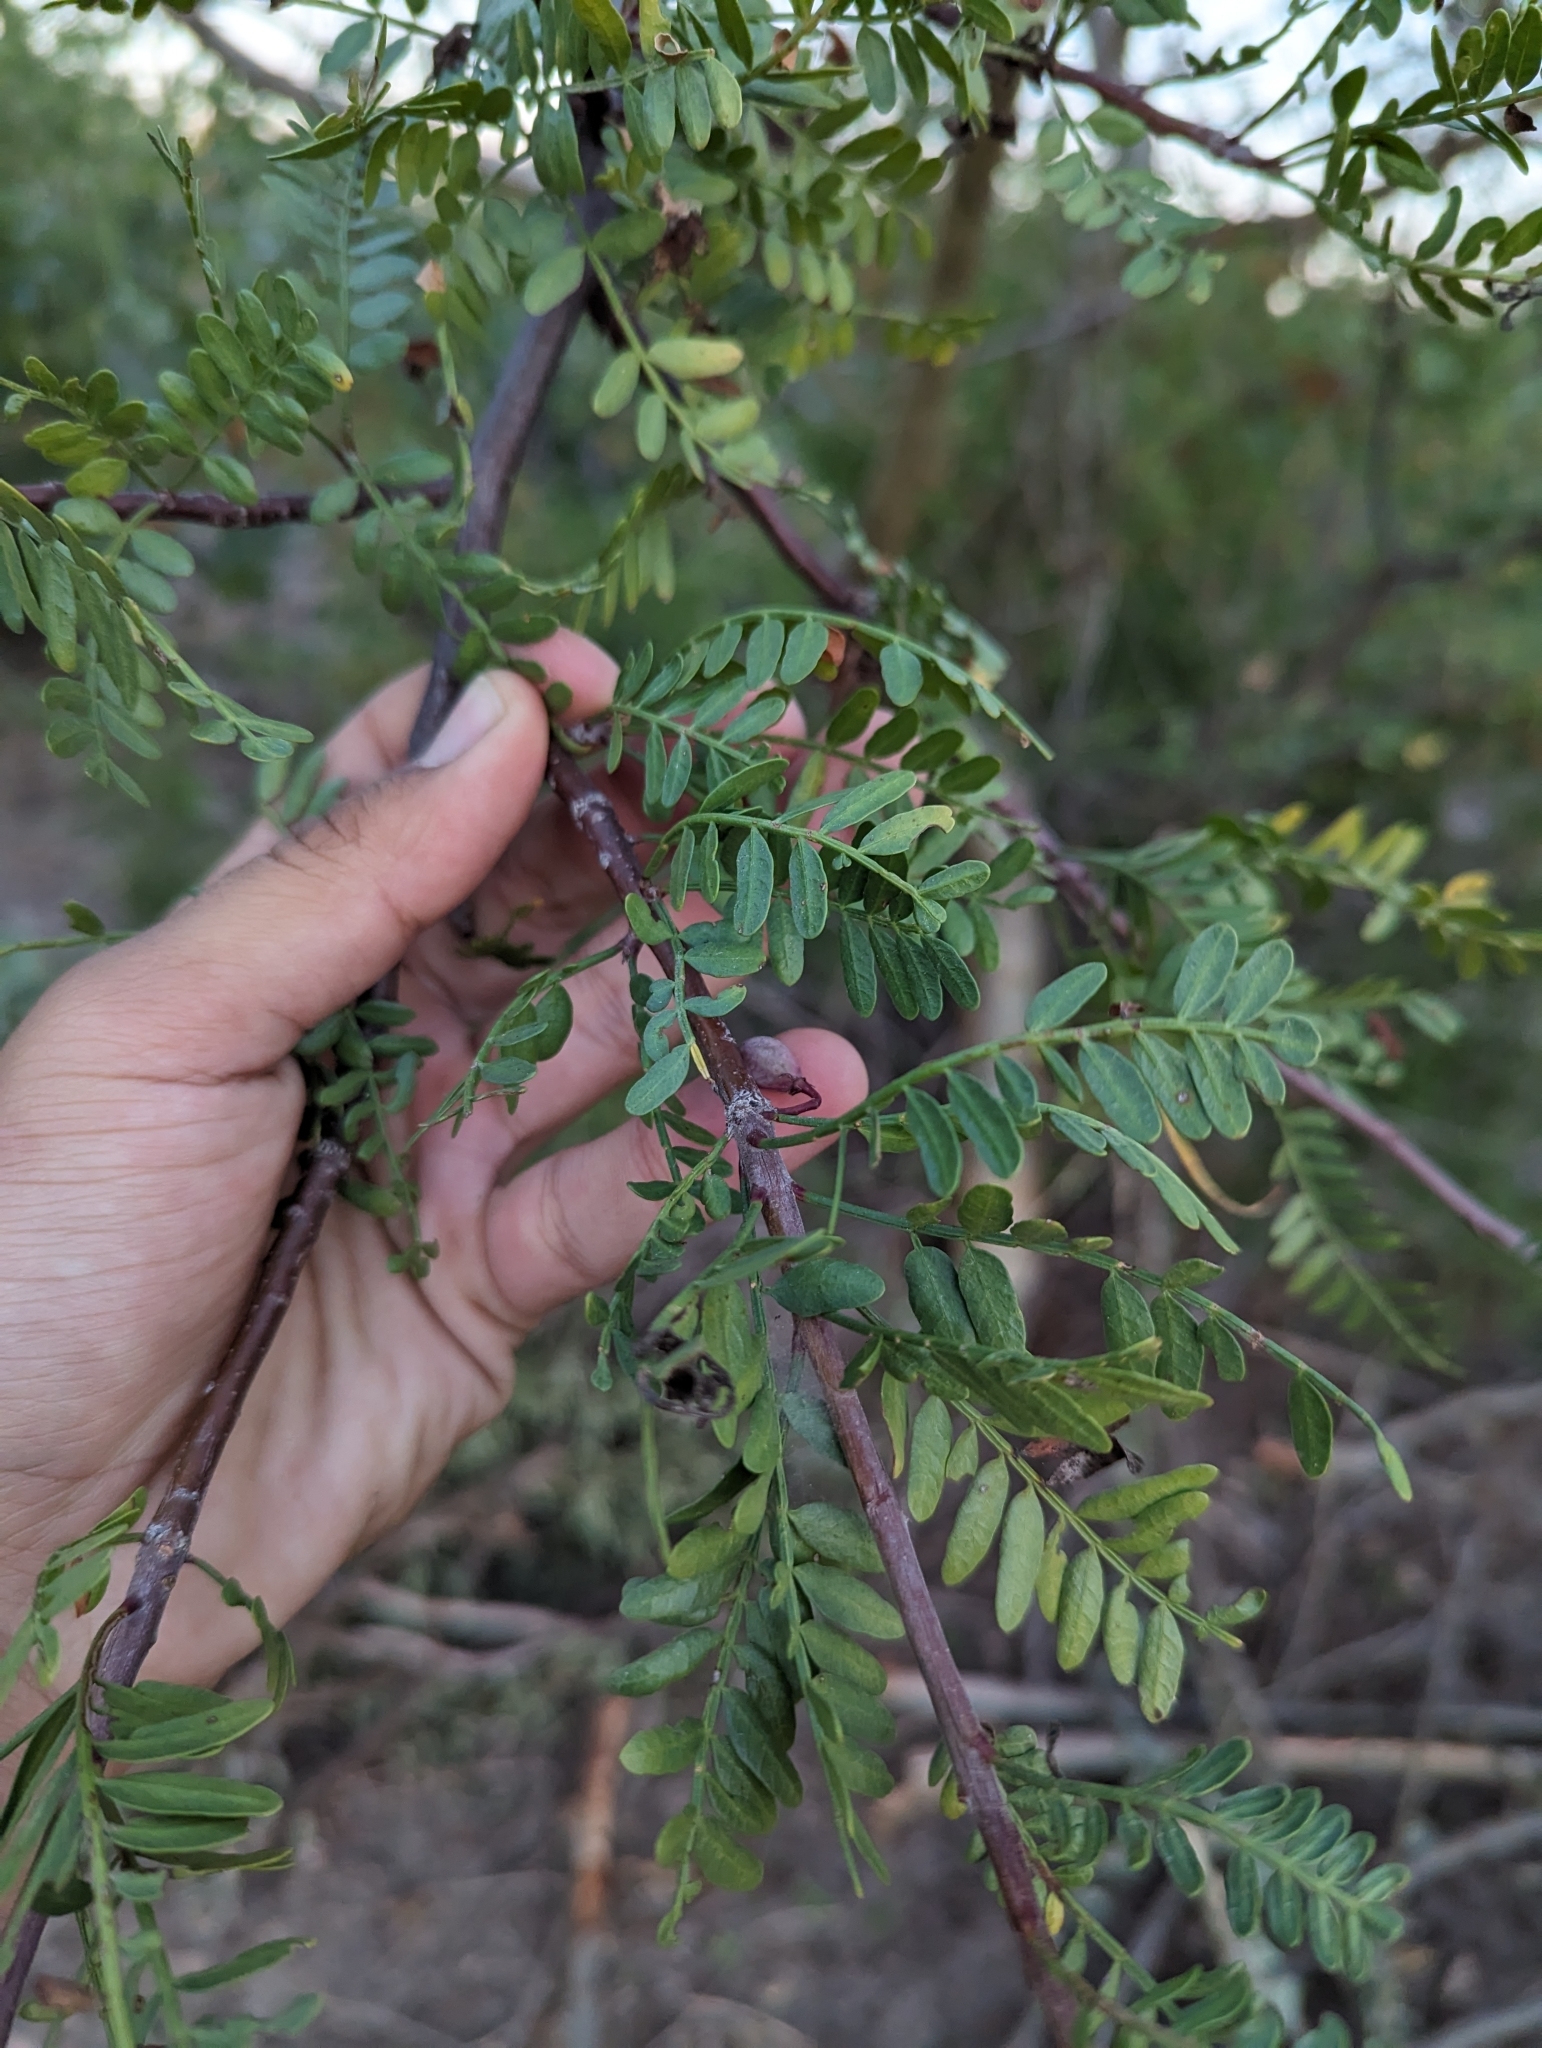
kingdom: Plantae
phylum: Tracheophyta
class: Magnoliopsida
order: Sapindales
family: Burseraceae
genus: Bursera
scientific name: Bursera microphylla
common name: Elephant tree
